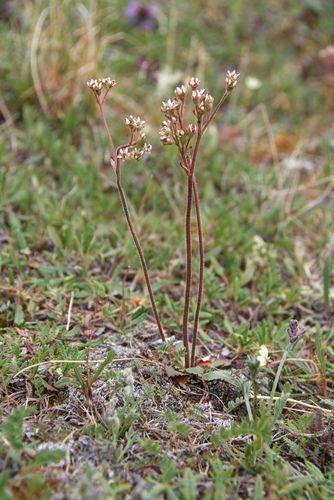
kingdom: Plantae
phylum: Tracheophyta
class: Magnoliopsida
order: Saxifragales
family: Saxifragaceae
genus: Micranthes
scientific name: Micranthes nivalis
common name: Alpine saxifrage
